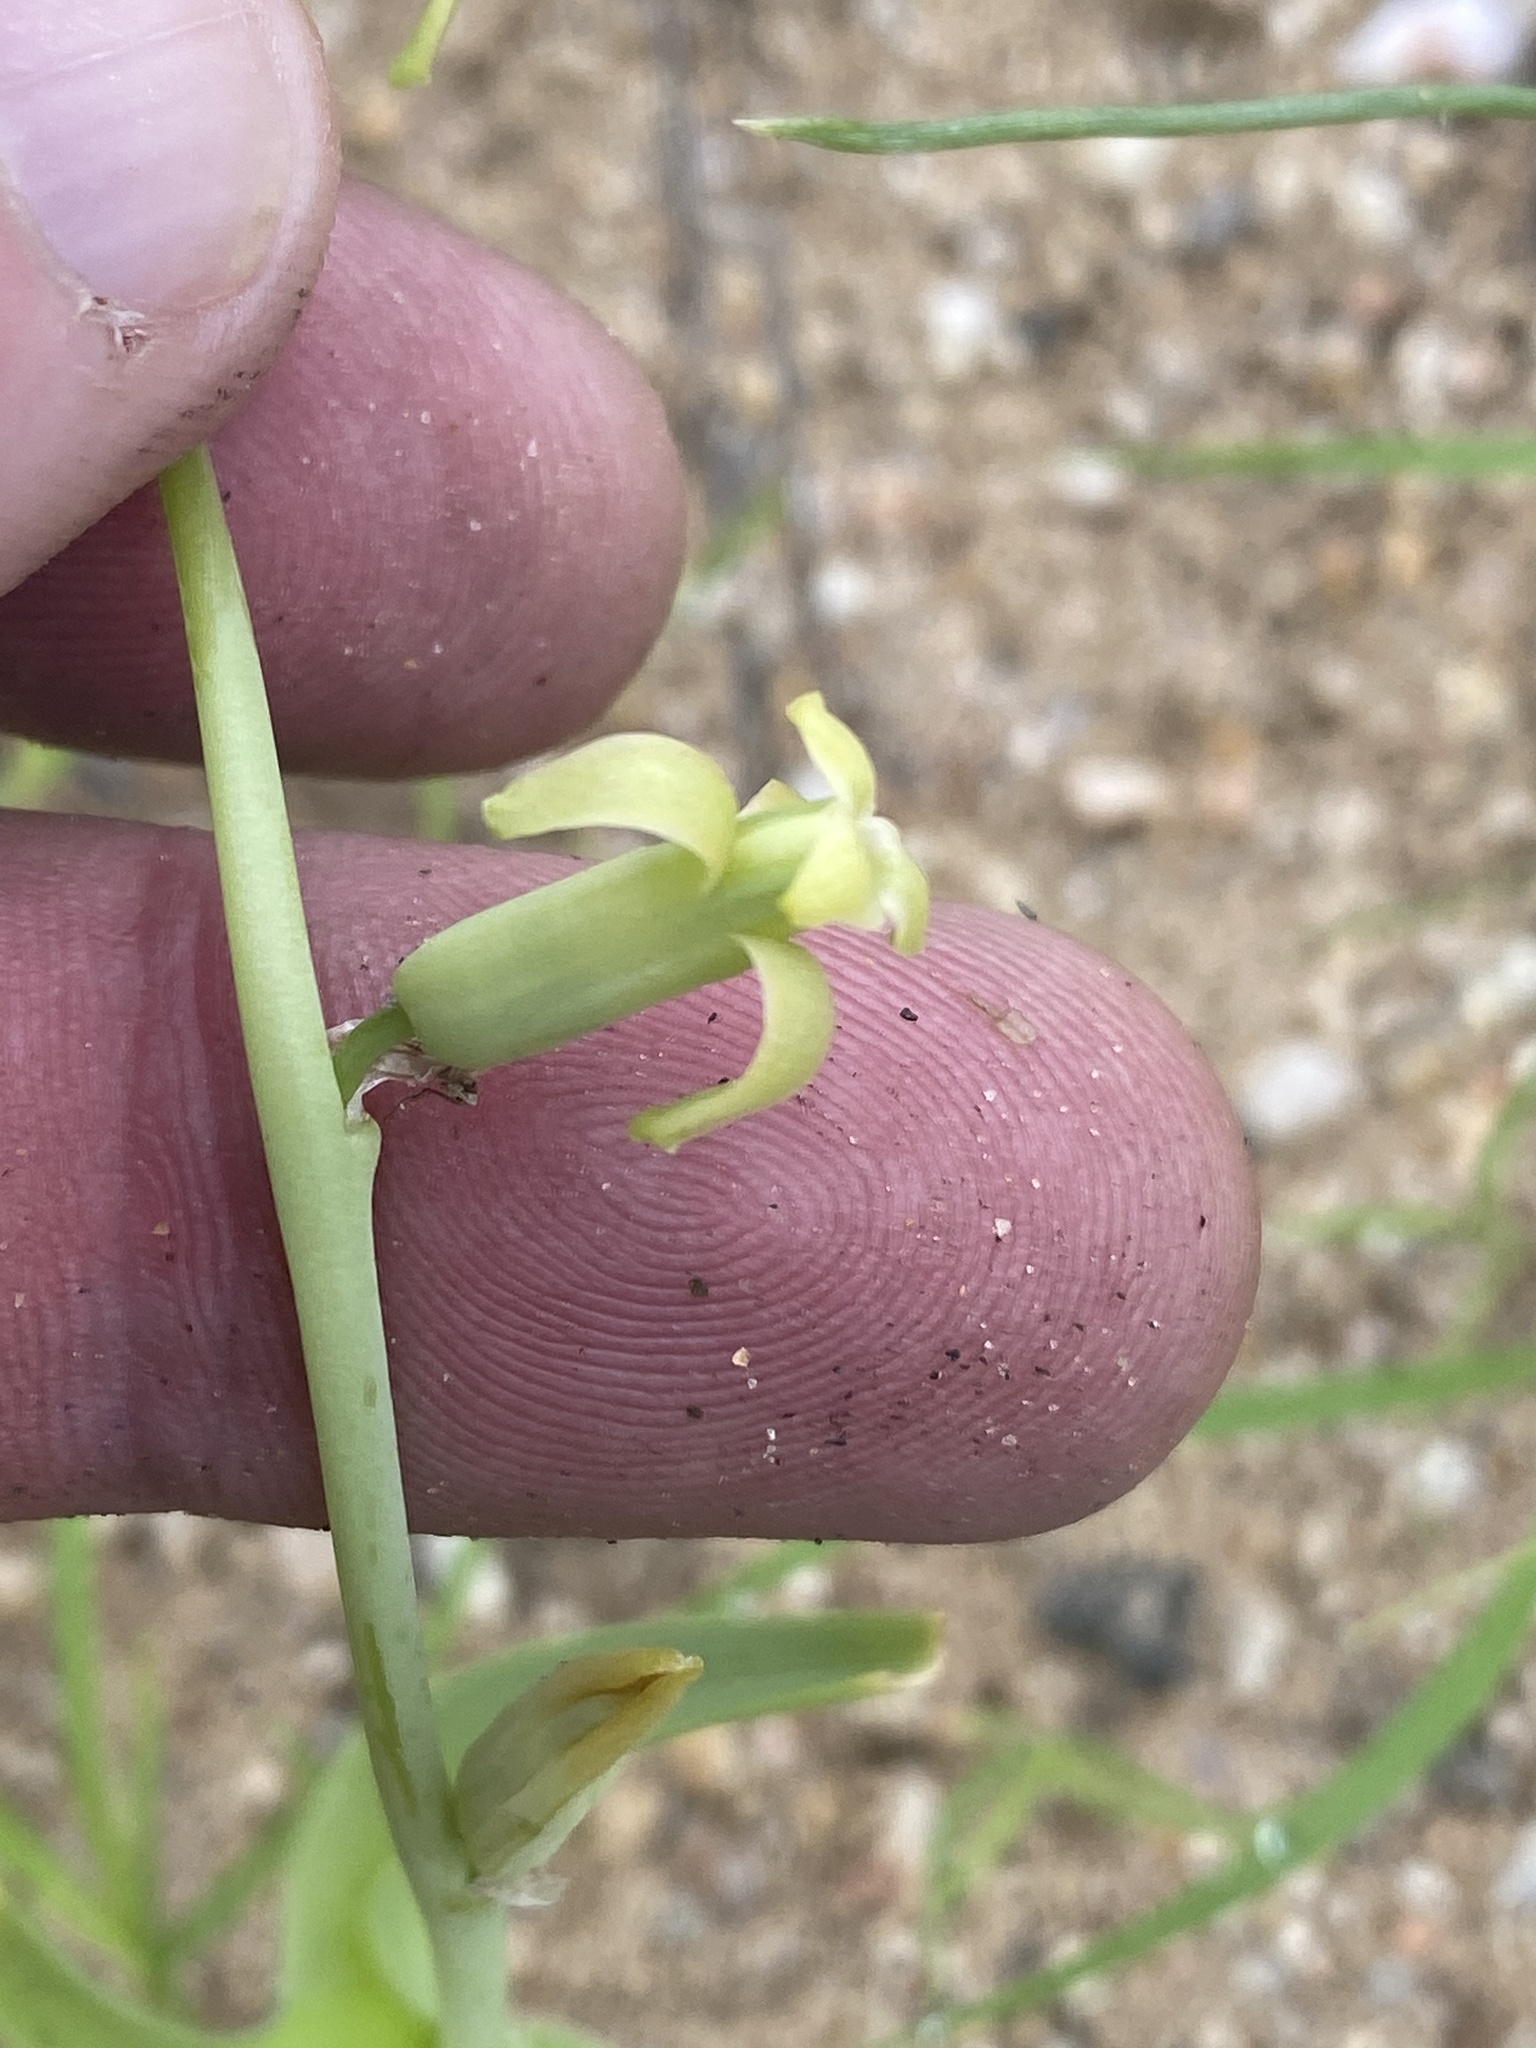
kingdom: Plantae
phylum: Tracheophyta
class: Liliopsida
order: Asparagales
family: Asparagaceae
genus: Dipcadi
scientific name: Dipcadi bakerianum
